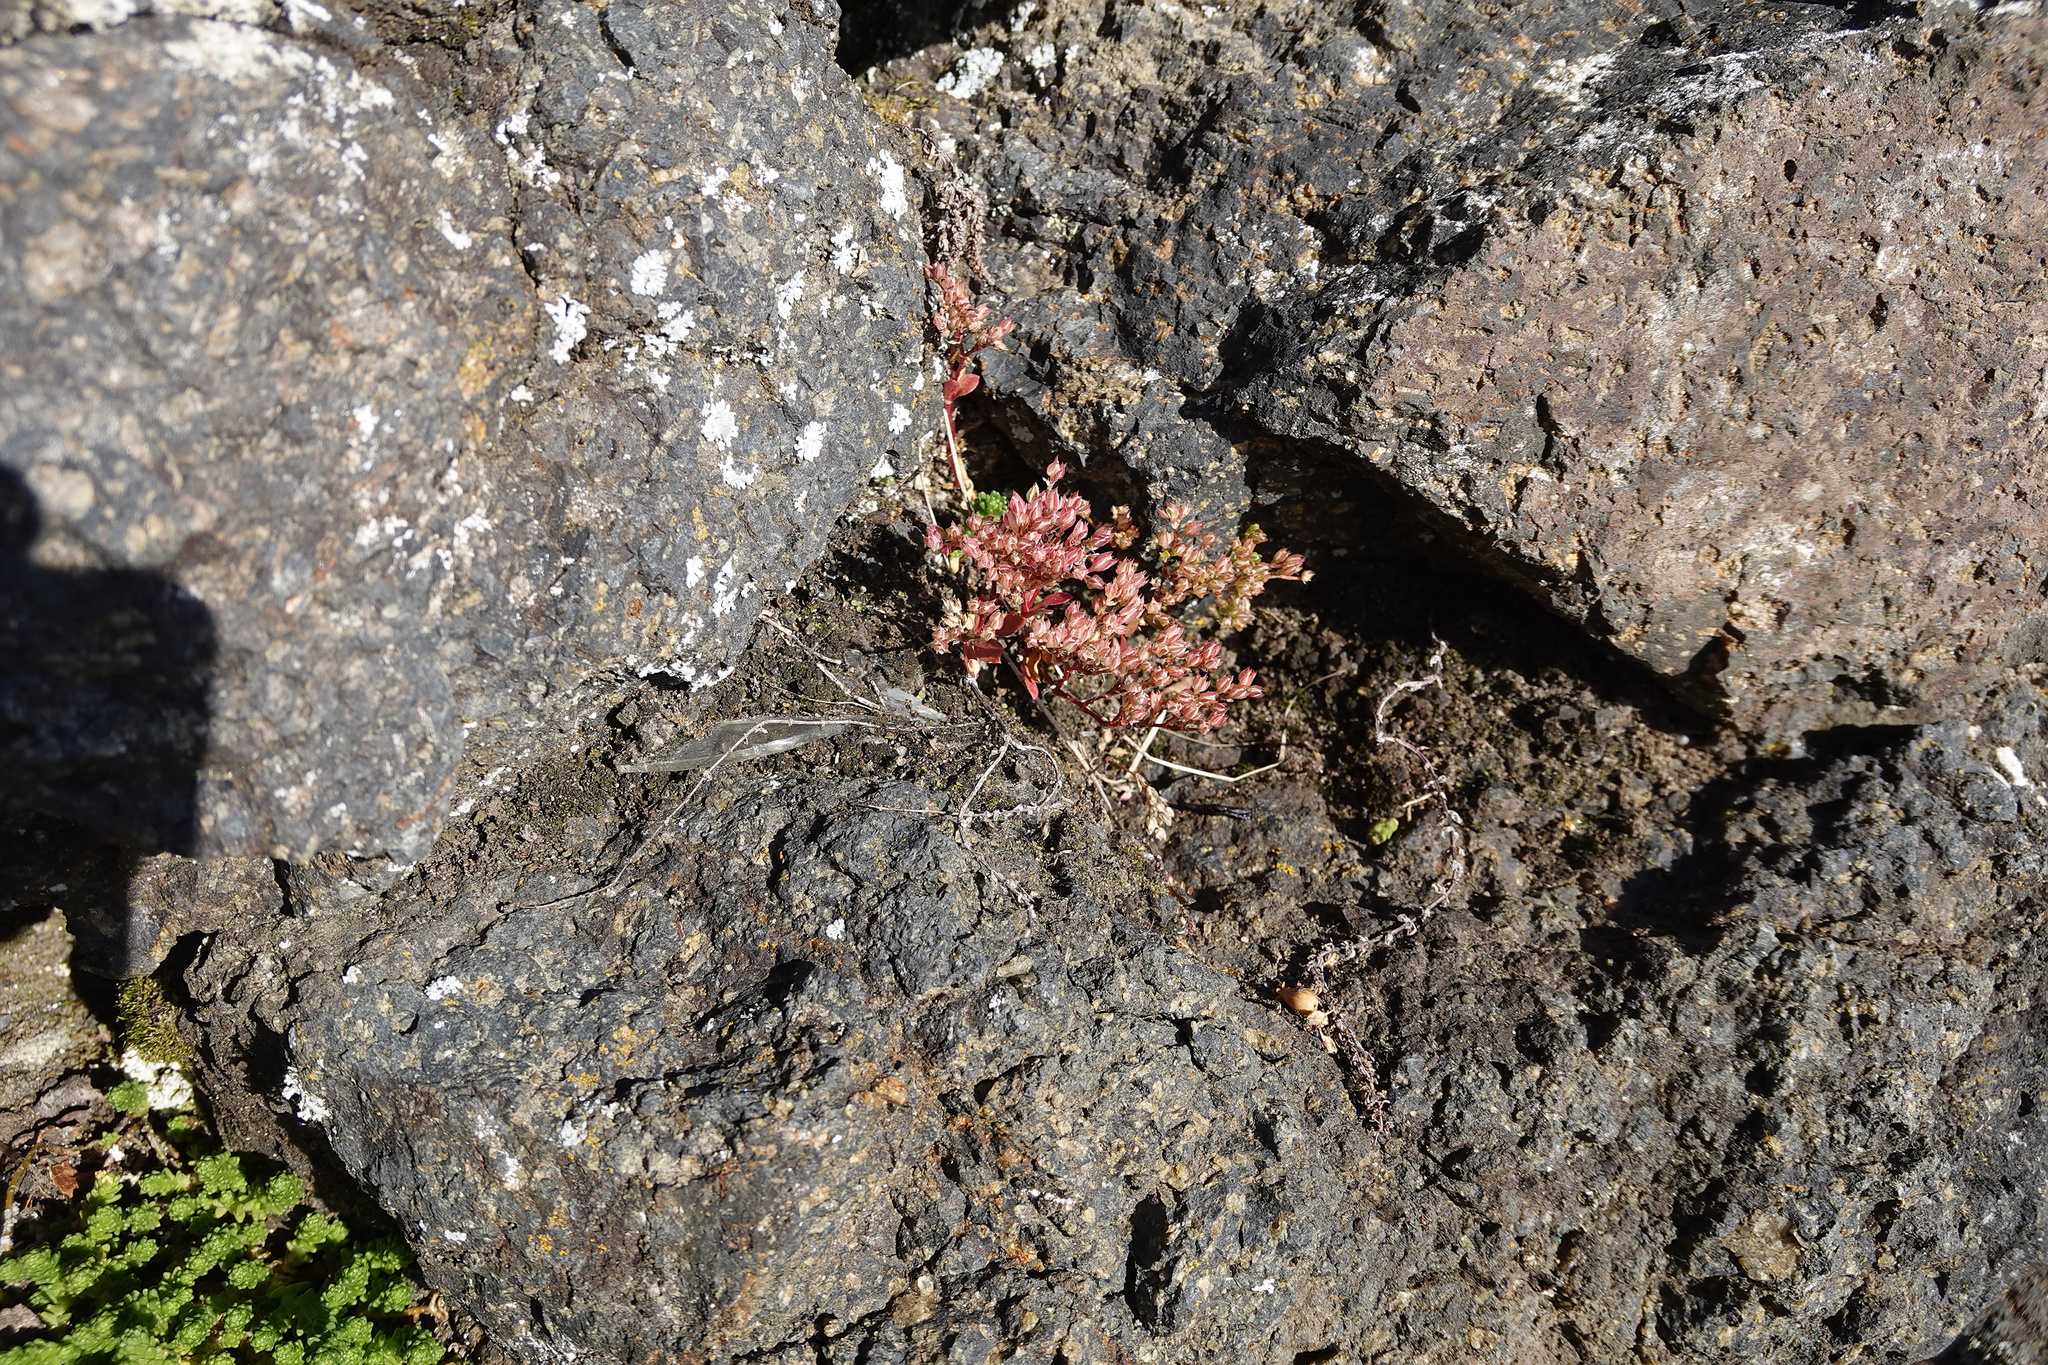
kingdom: Plantae
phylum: Tracheophyta
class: Magnoliopsida
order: Caryophyllales
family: Caryophyllaceae
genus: Polycarpon
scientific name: Polycarpon tetraphyllum
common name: Four-leaved all-seed
